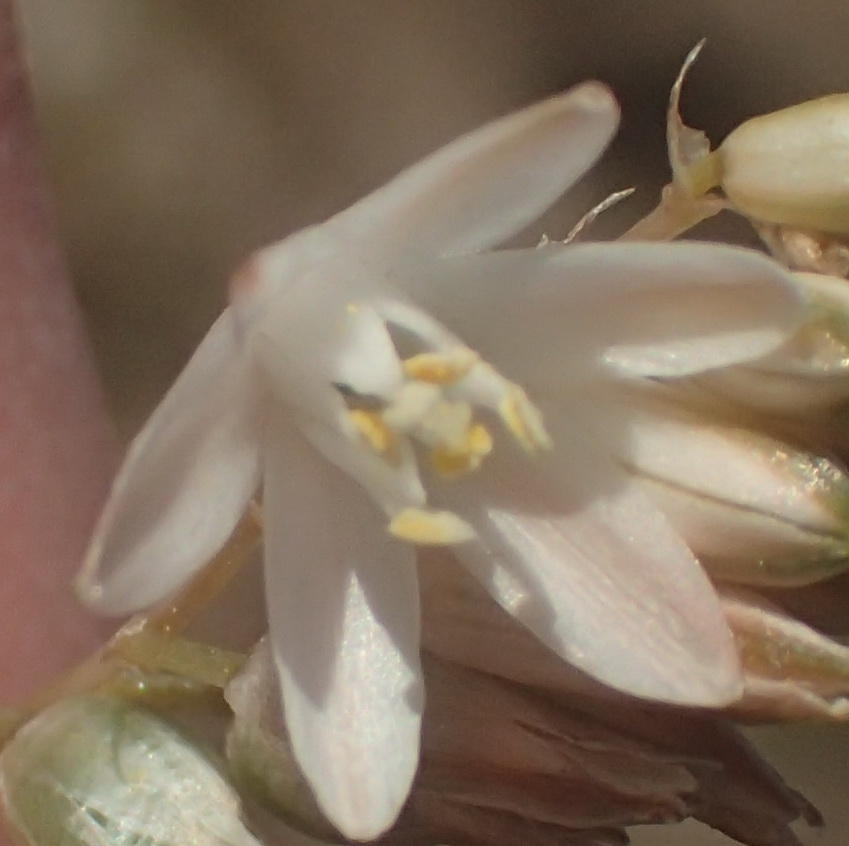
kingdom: Plantae
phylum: Tracheophyta
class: Liliopsida
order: Asparagales
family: Asparagaceae
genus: Ornithogalum
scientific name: Ornithogalum graminifolium
